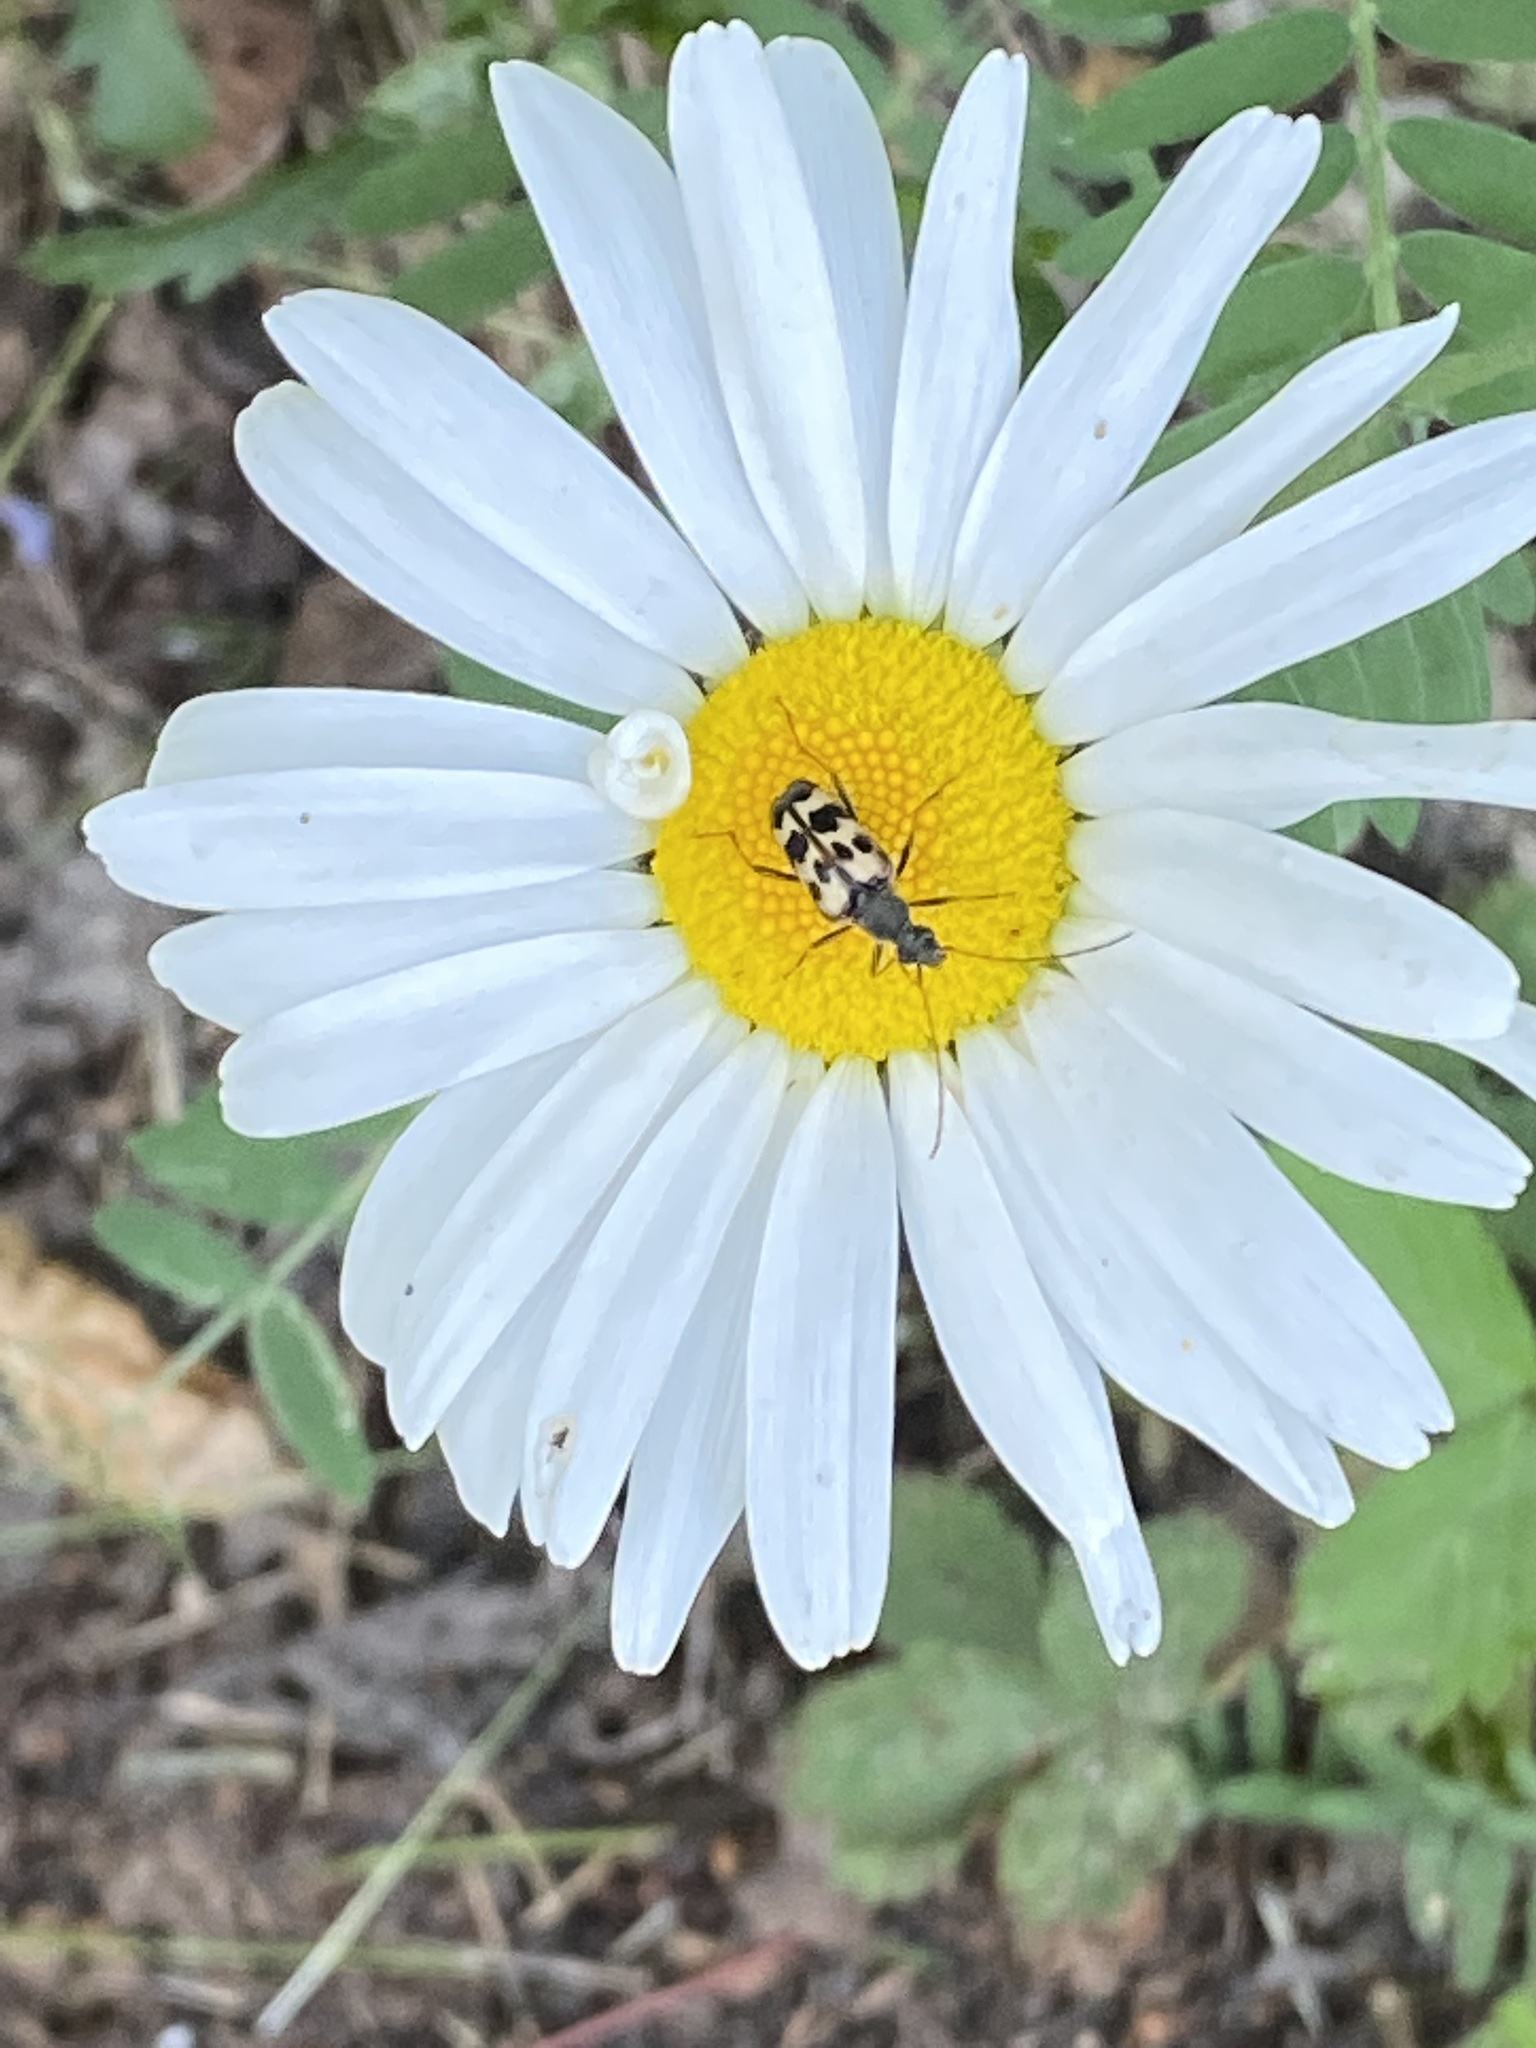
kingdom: Animalia
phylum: Arthropoda
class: Insecta
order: Coleoptera
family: Cerambycidae
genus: Judolia
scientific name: Judolia montivagans
